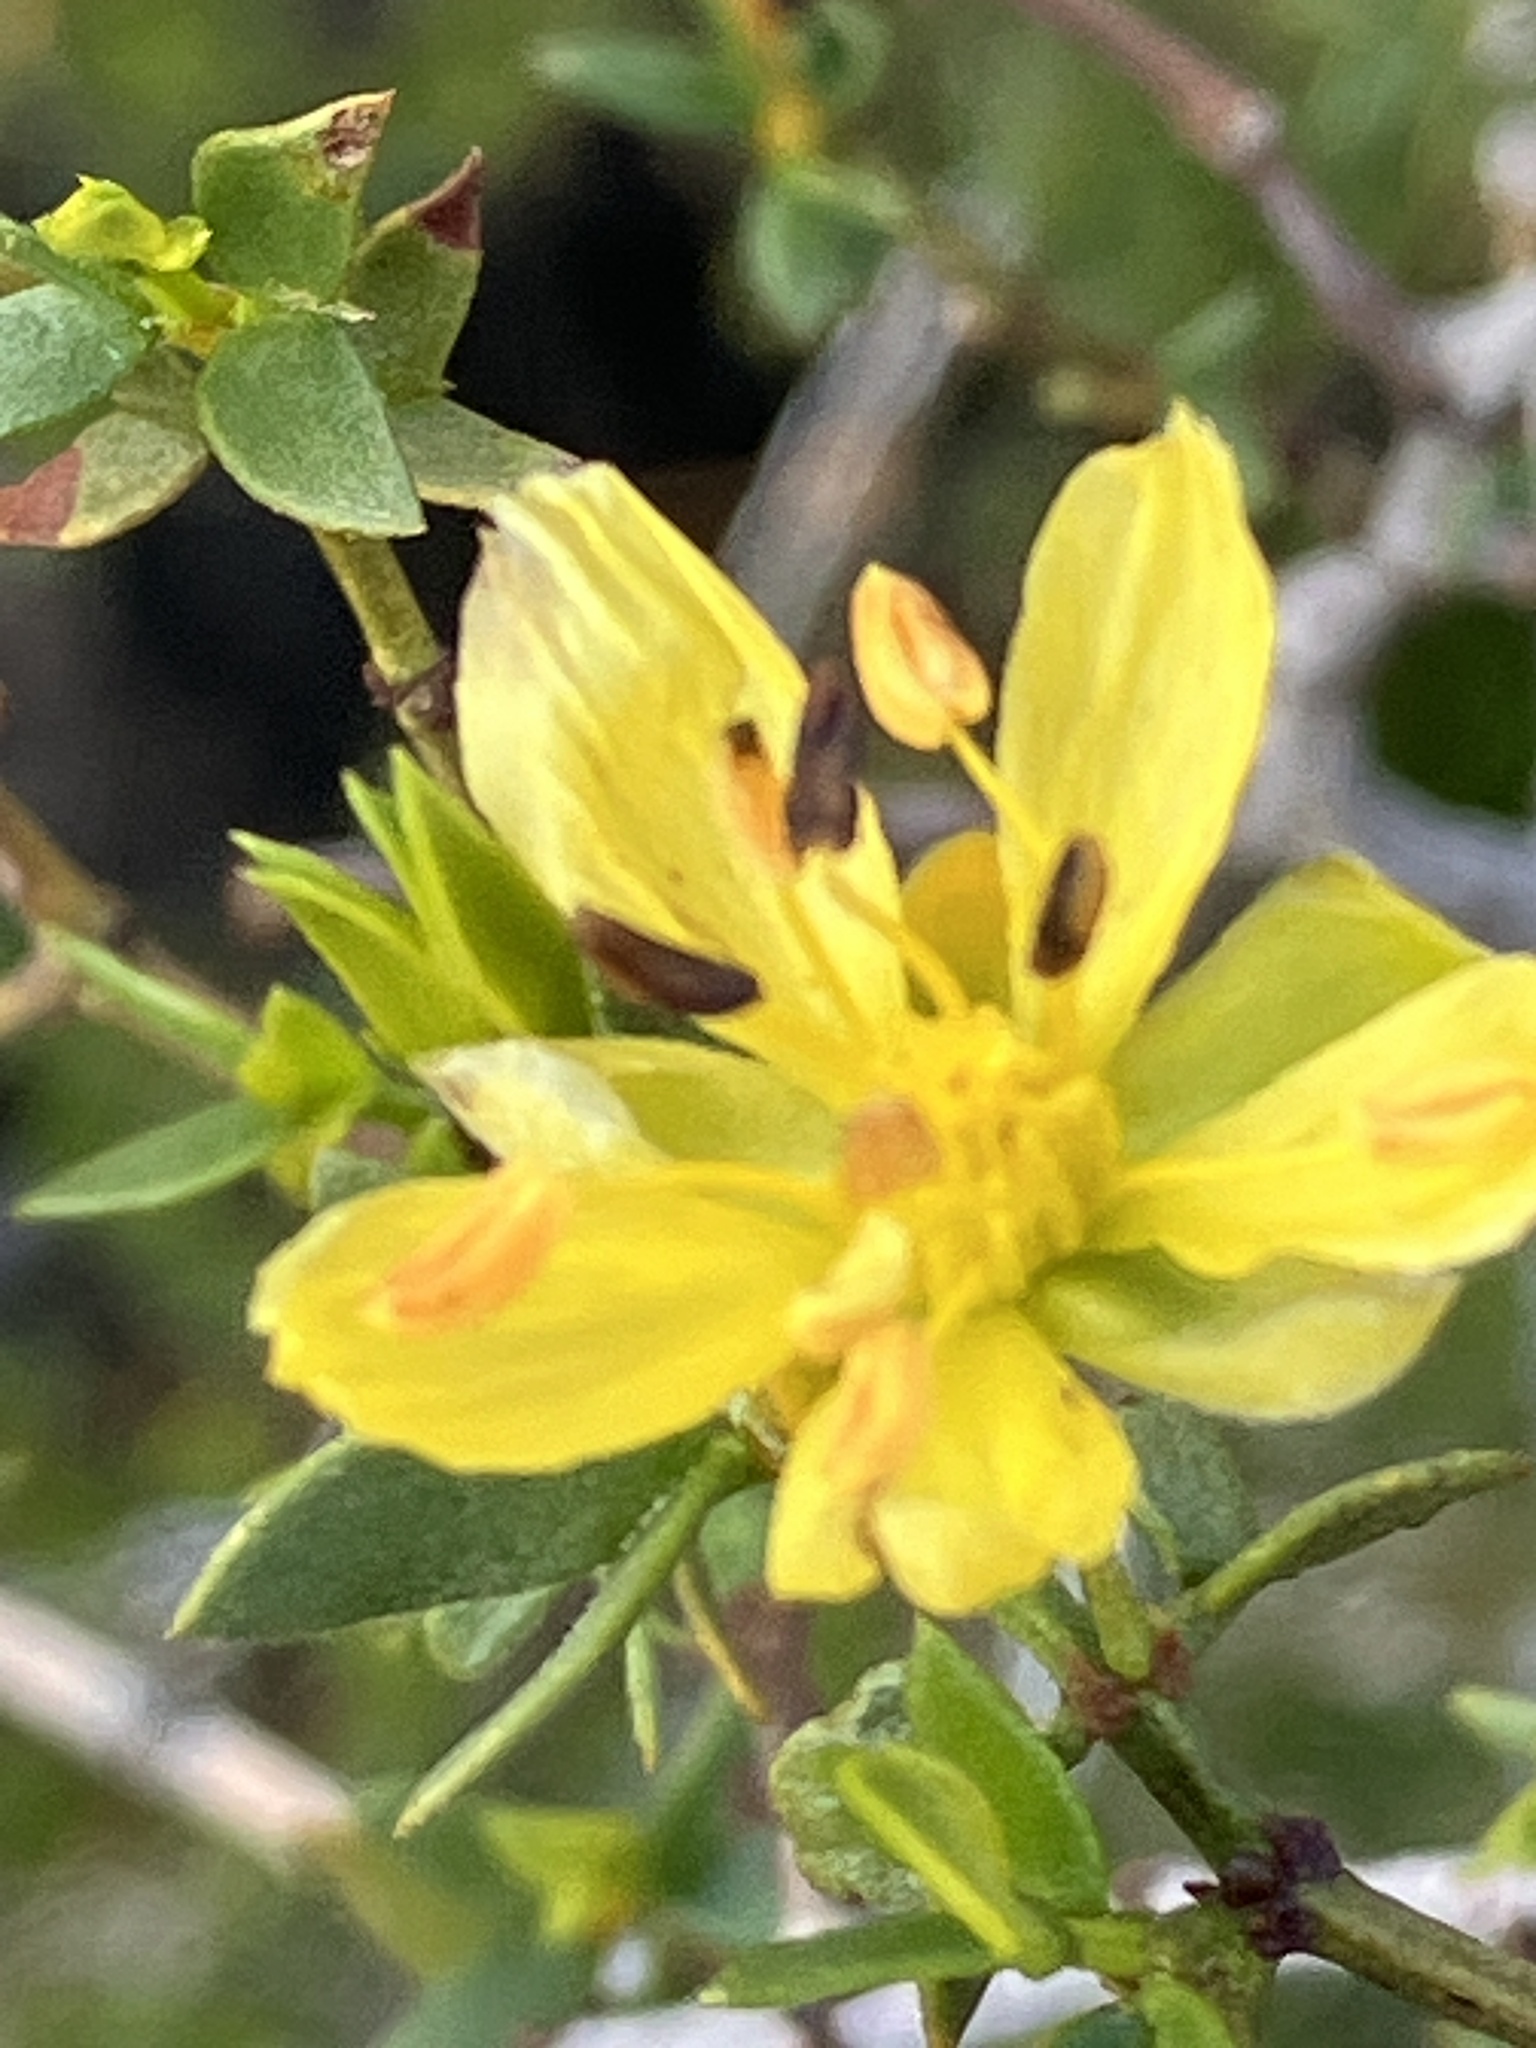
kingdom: Plantae
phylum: Tracheophyta
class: Magnoliopsida
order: Zygophyllales
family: Zygophyllaceae
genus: Larrea
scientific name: Larrea tridentata
